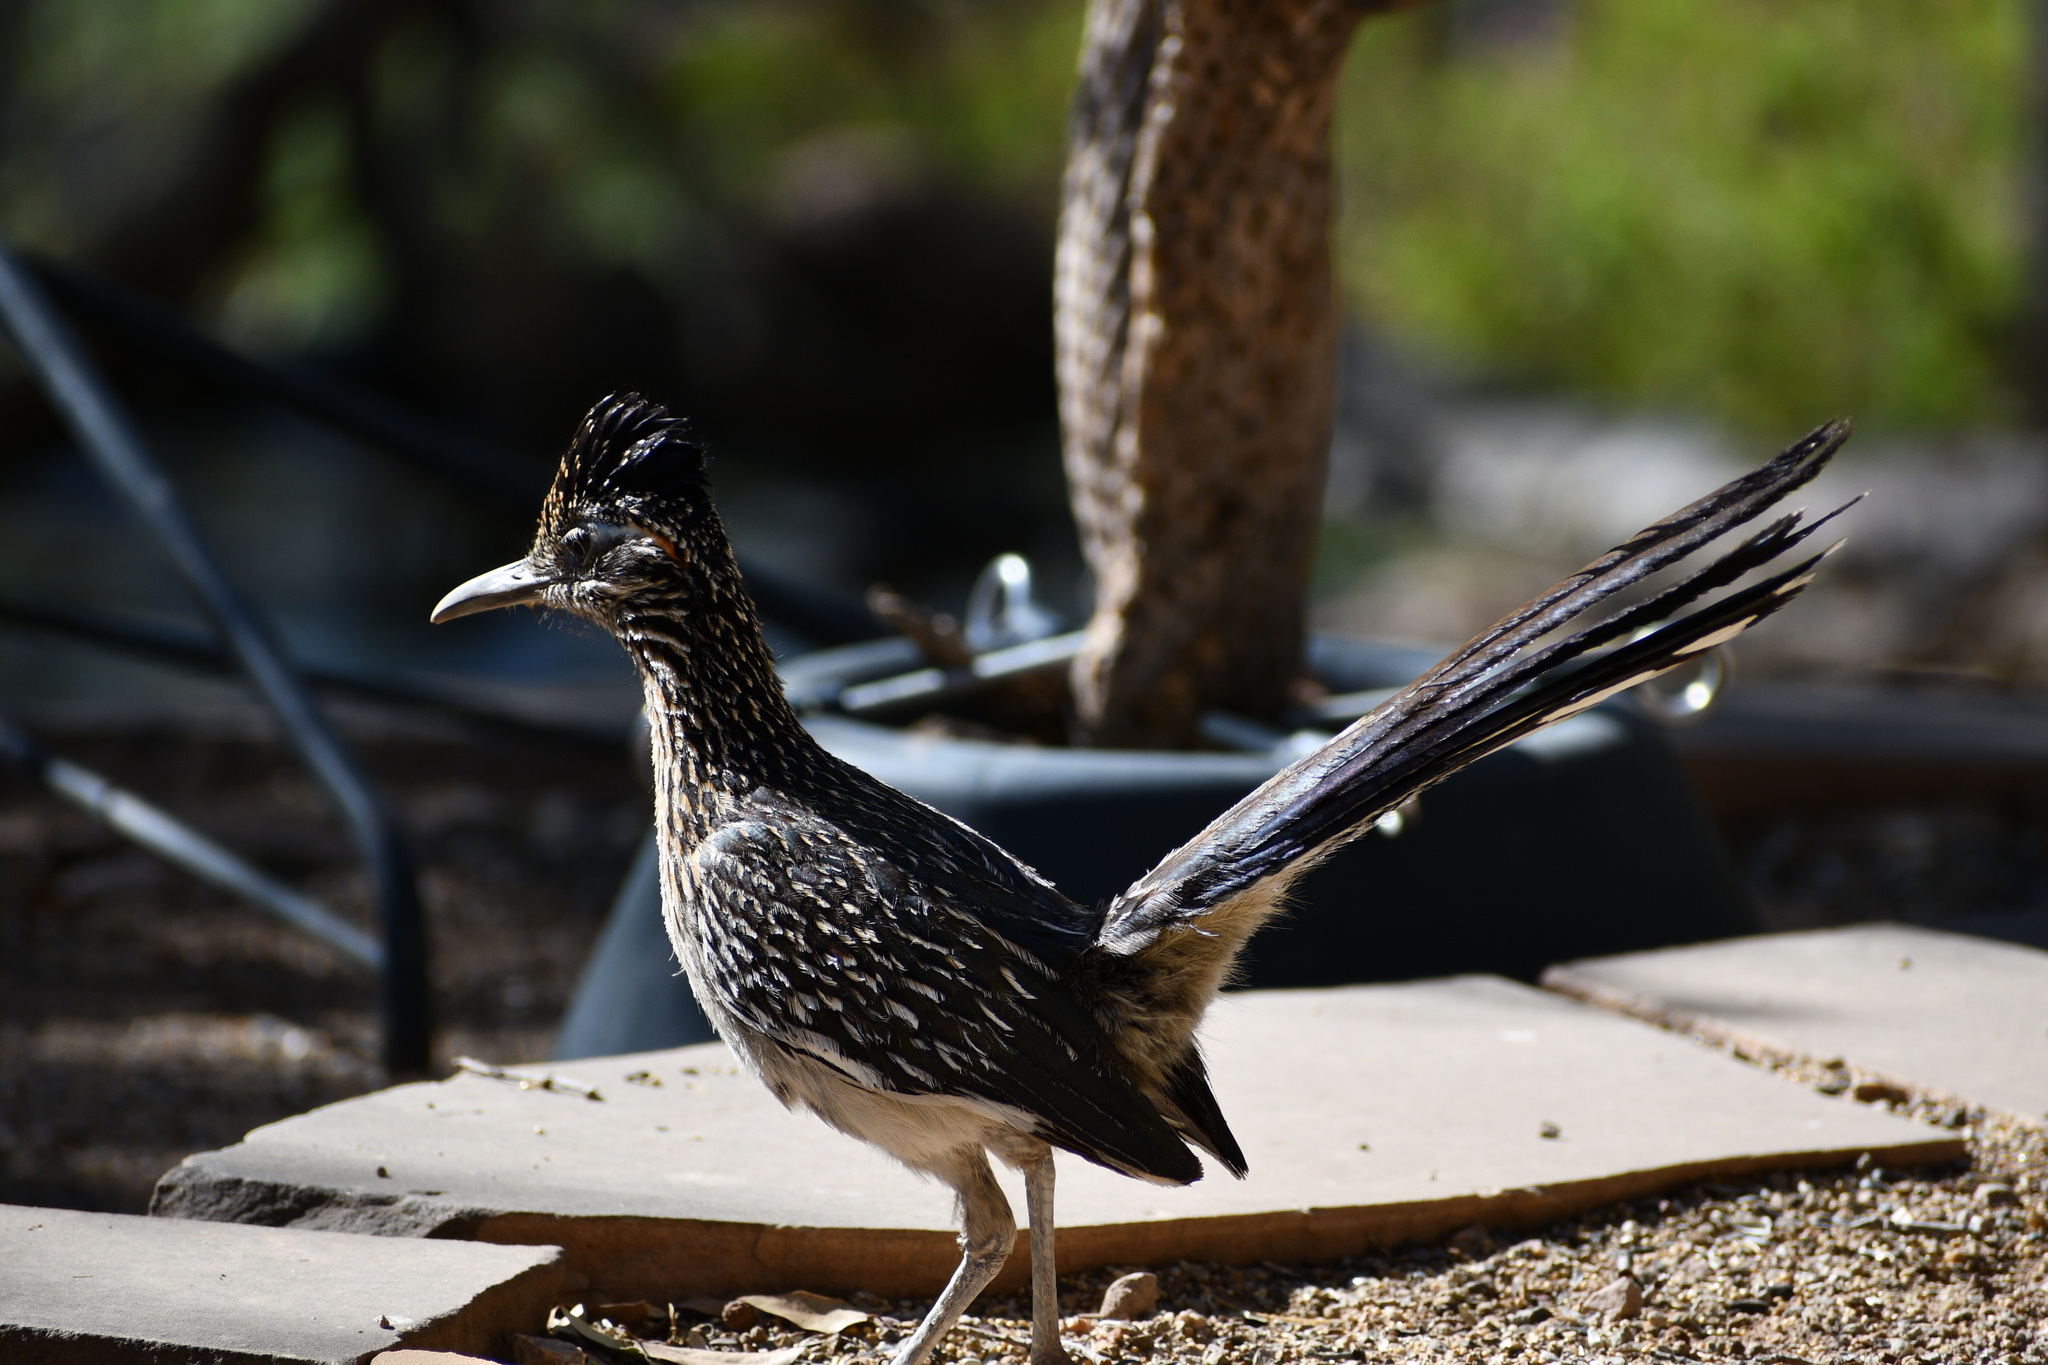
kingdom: Animalia
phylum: Chordata
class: Aves
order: Cuculiformes
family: Cuculidae
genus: Geococcyx
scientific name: Geococcyx californianus
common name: Greater roadrunner
